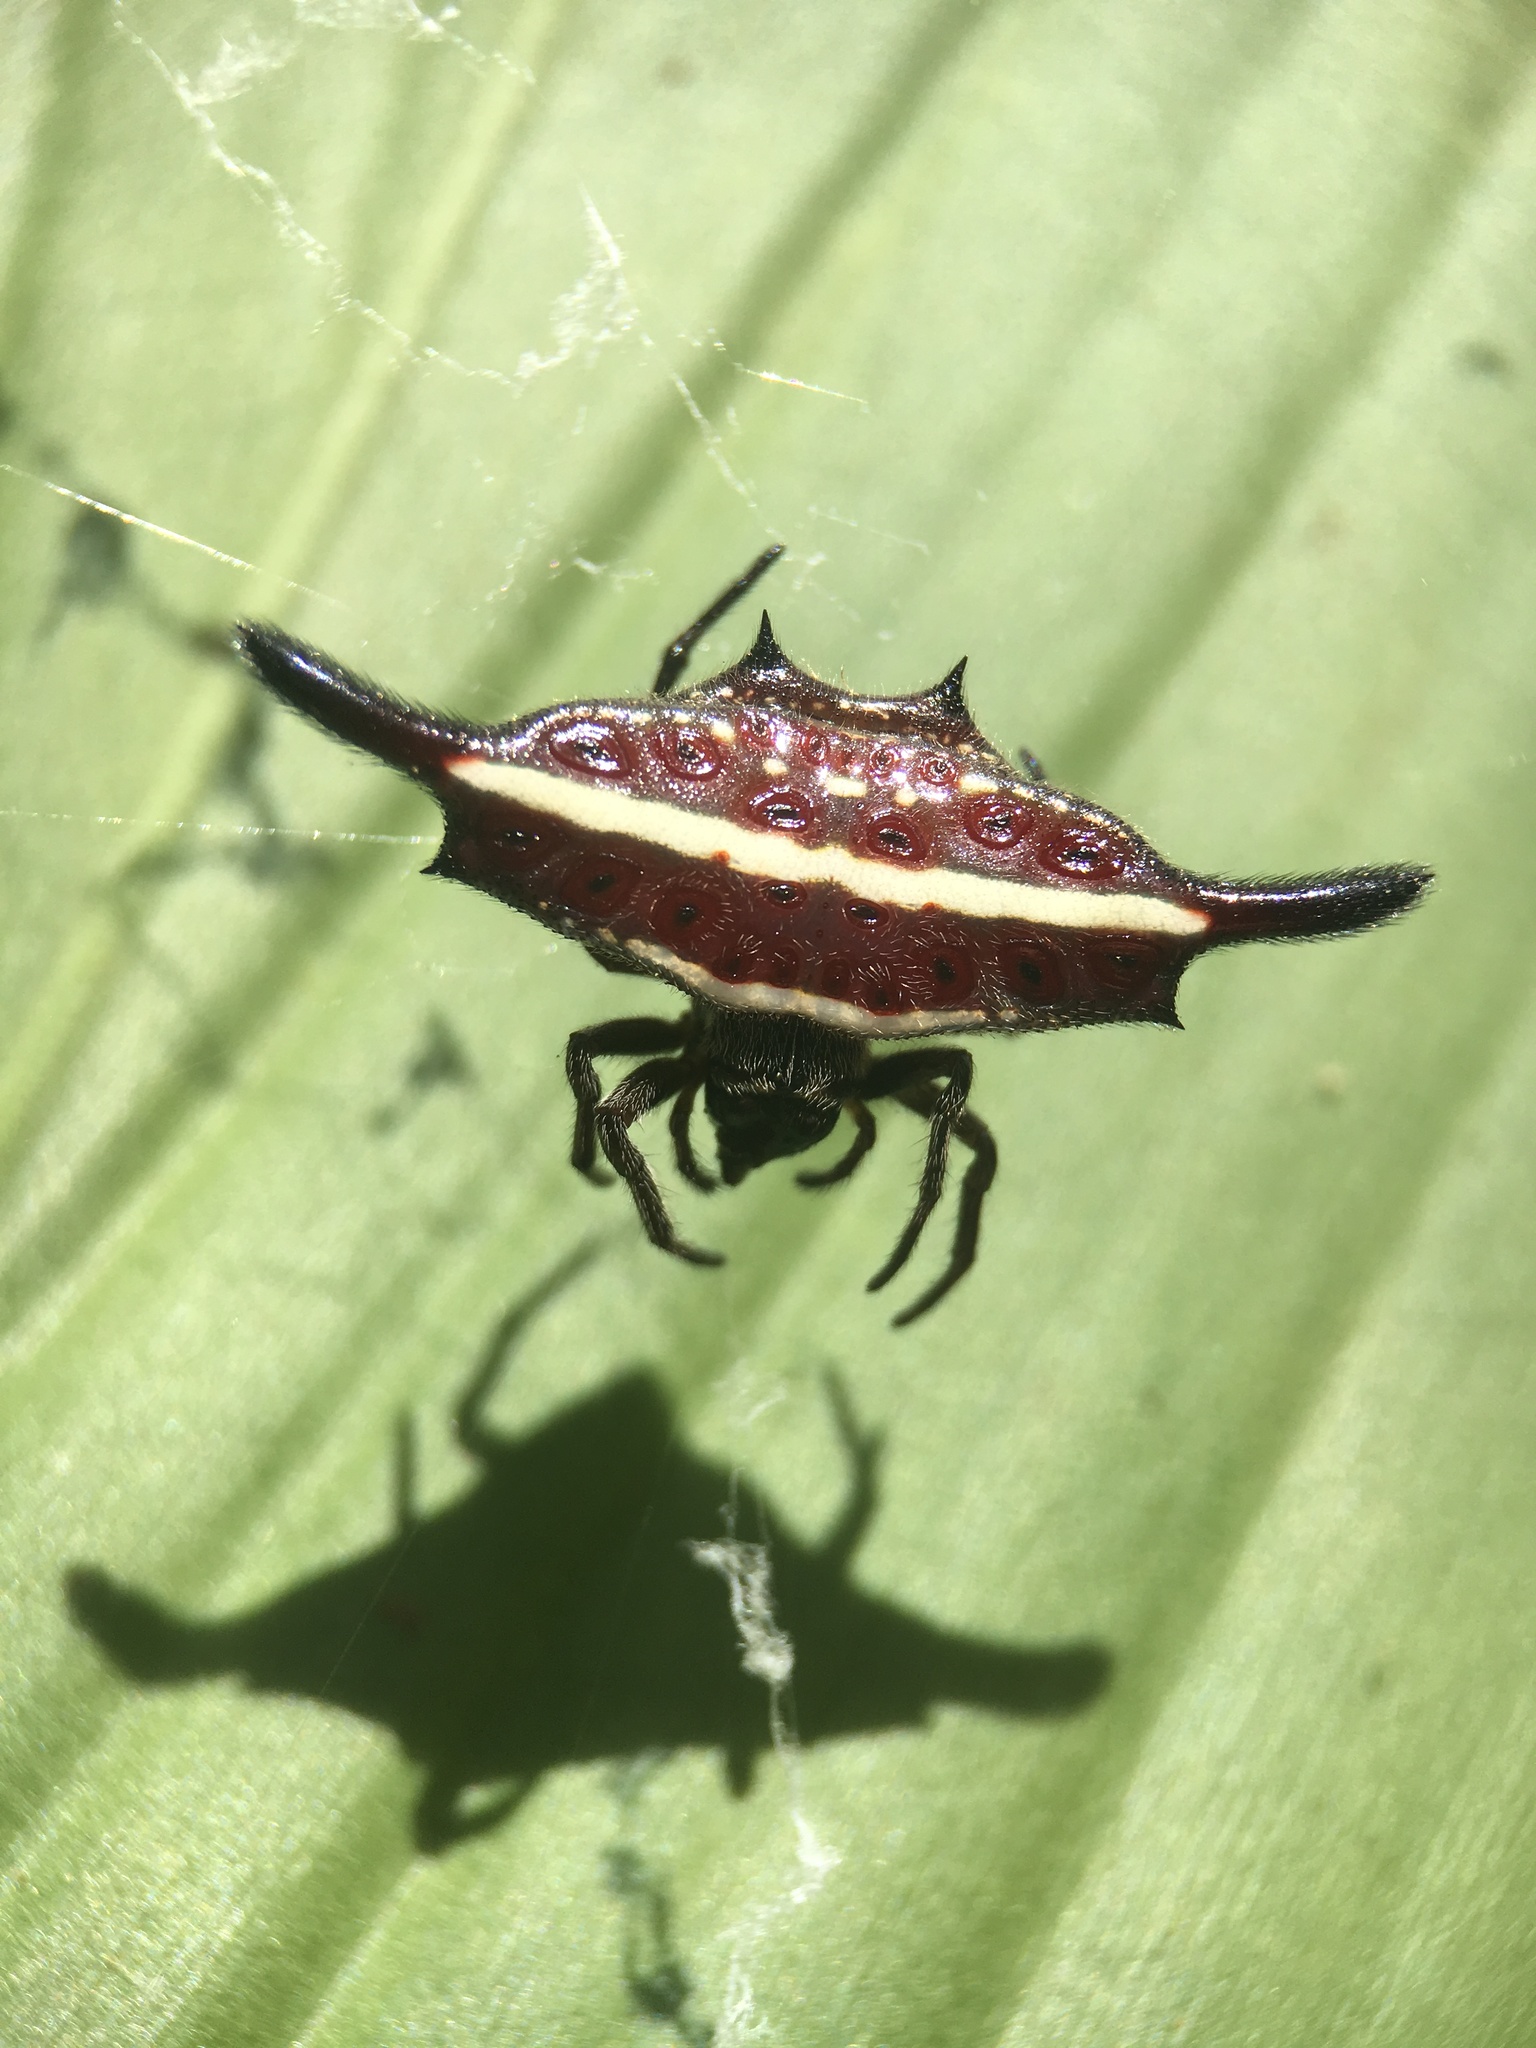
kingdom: Animalia
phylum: Arthropoda
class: Arachnida
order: Araneae
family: Araneidae
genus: Gasteracantha
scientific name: Gasteracantha diardi
